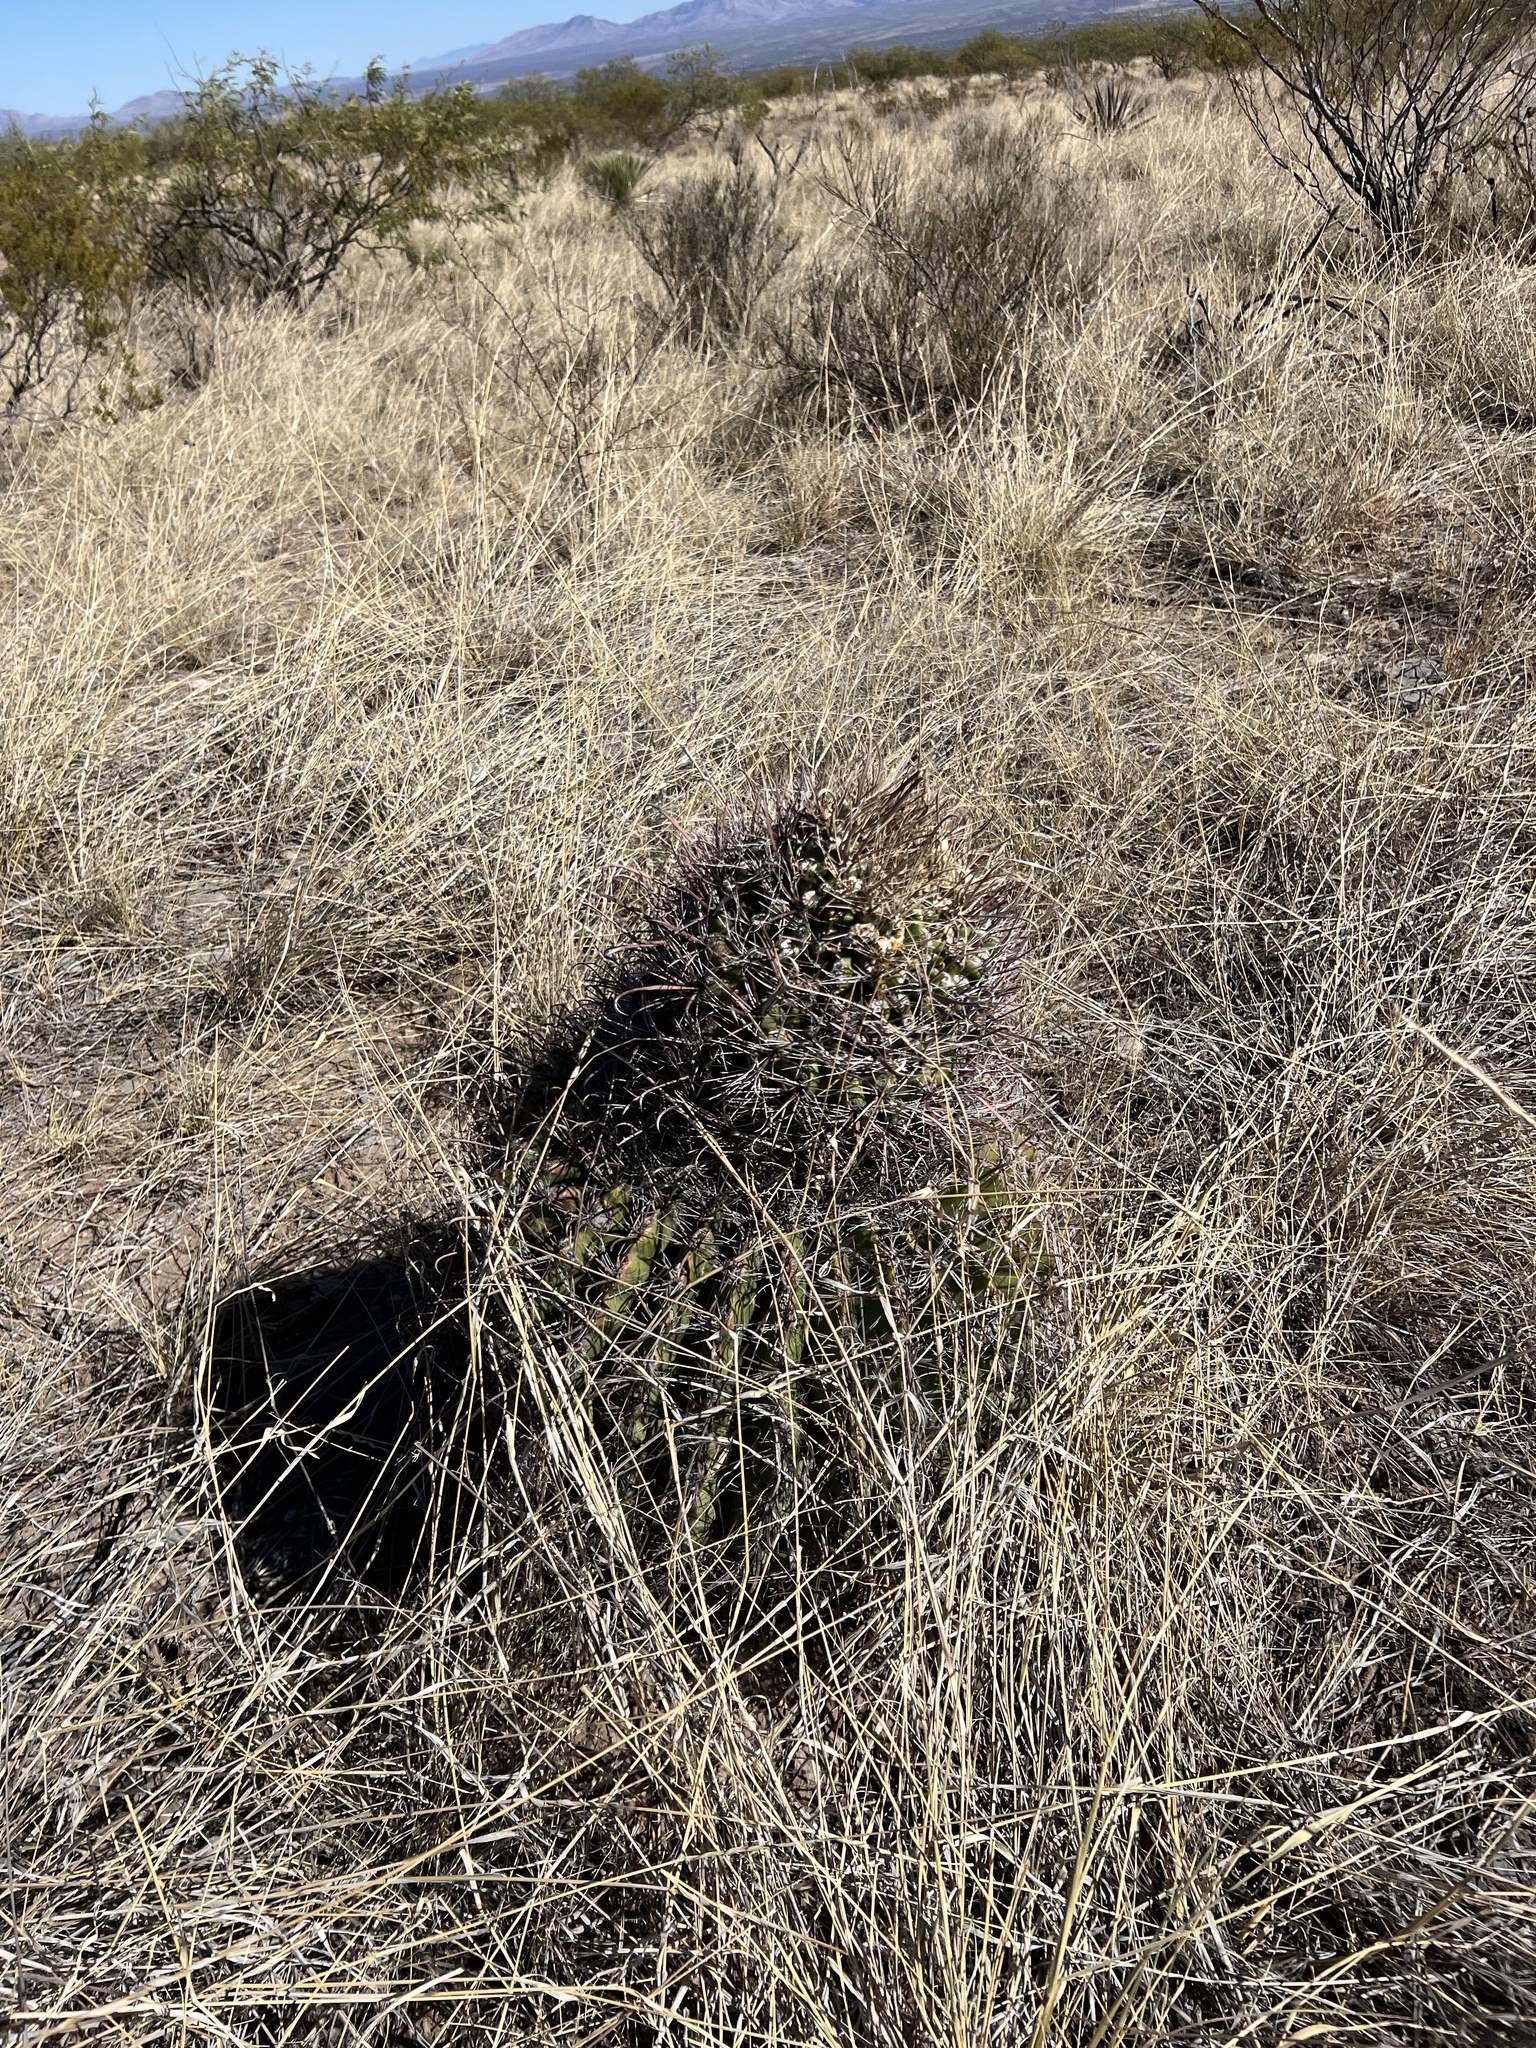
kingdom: Plantae
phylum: Tracheophyta
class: Magnoliopsida
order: Caryophyllales
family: Cactaceae
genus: Ferocactus
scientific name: Ferocactus wislizeni
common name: Candy barrel cactus
